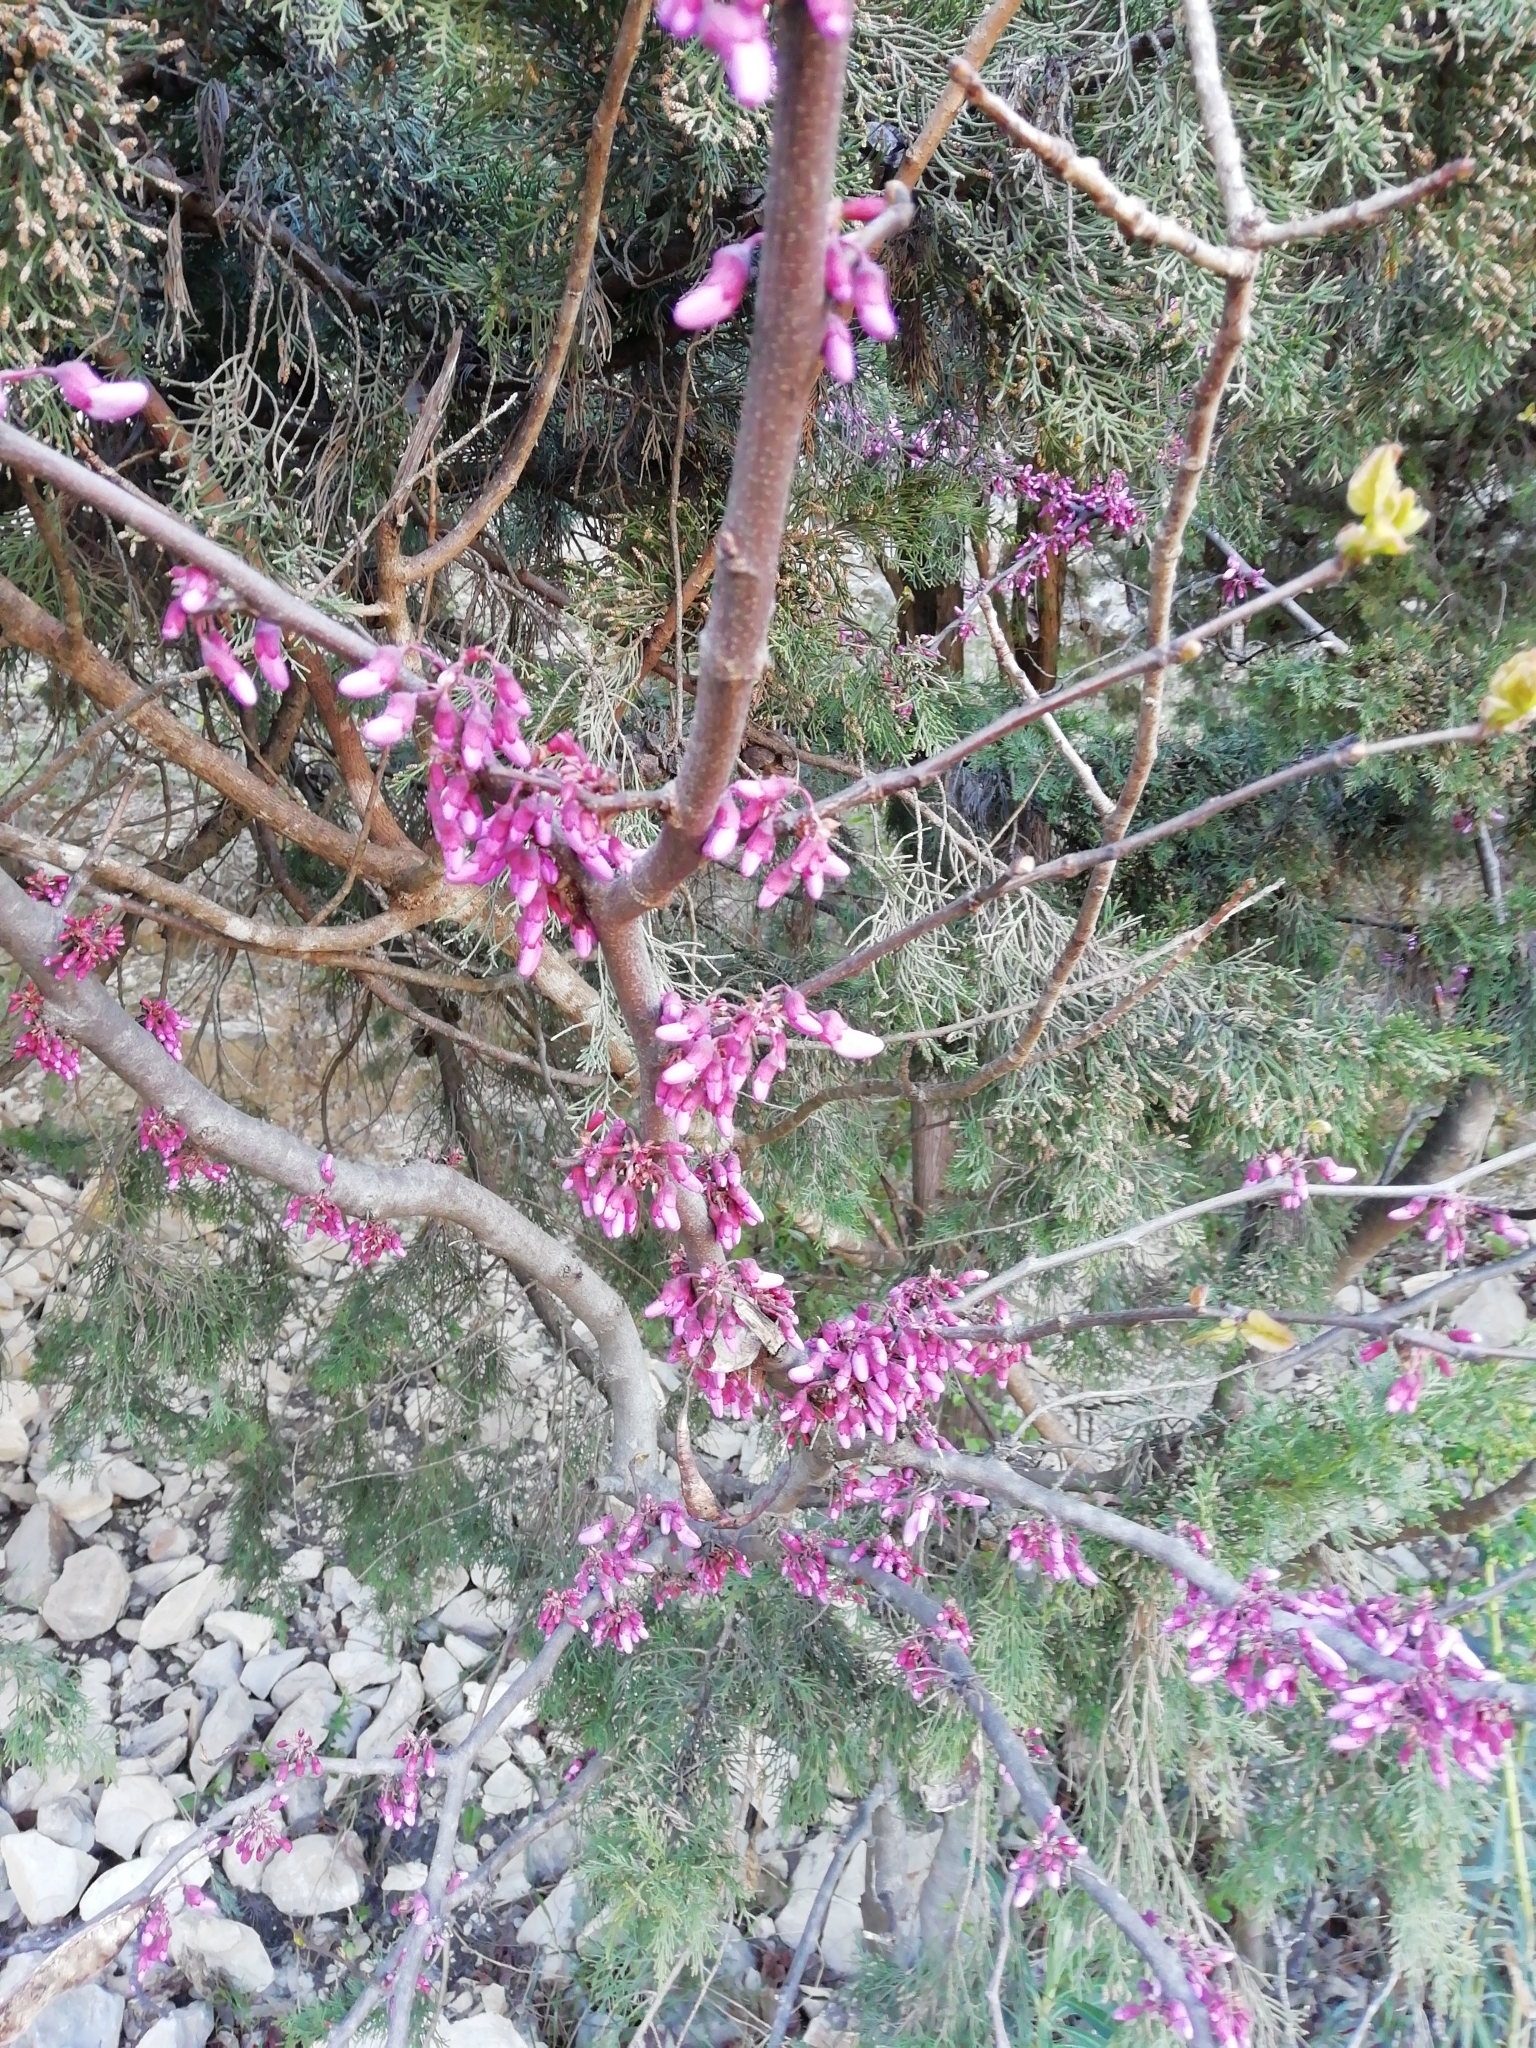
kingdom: Plantae
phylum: Tracheophyta
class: Magnoliopsida
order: Fabales
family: Fabaceae
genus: Cercis
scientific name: Cercis siliquastrum
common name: Judas tree
